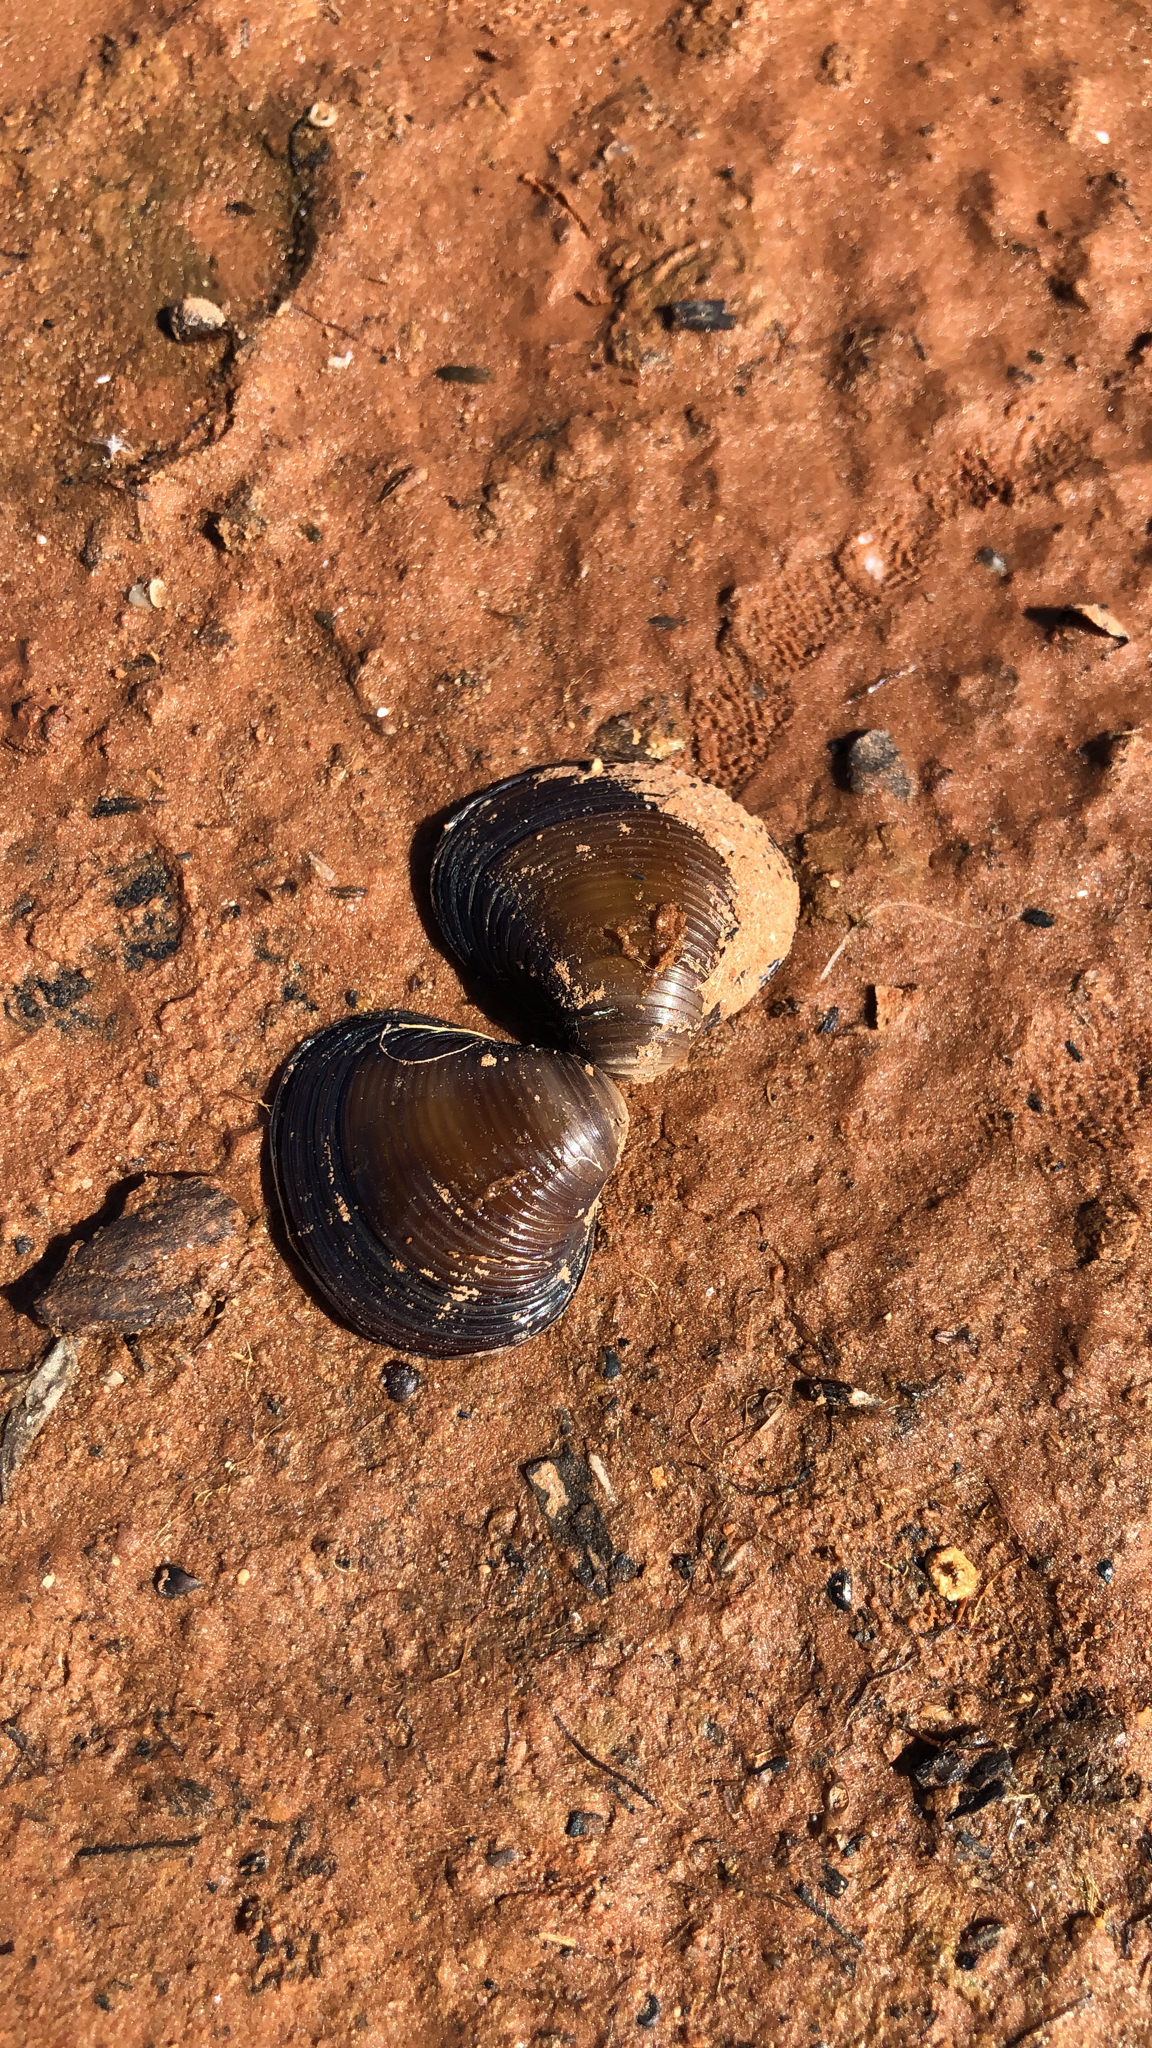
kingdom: Animalia
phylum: Mollusca
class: Bivalvia
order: Venerida
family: Cyrenidae
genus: Corbicula
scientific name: Corbicula fluminea
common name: Asian clam
